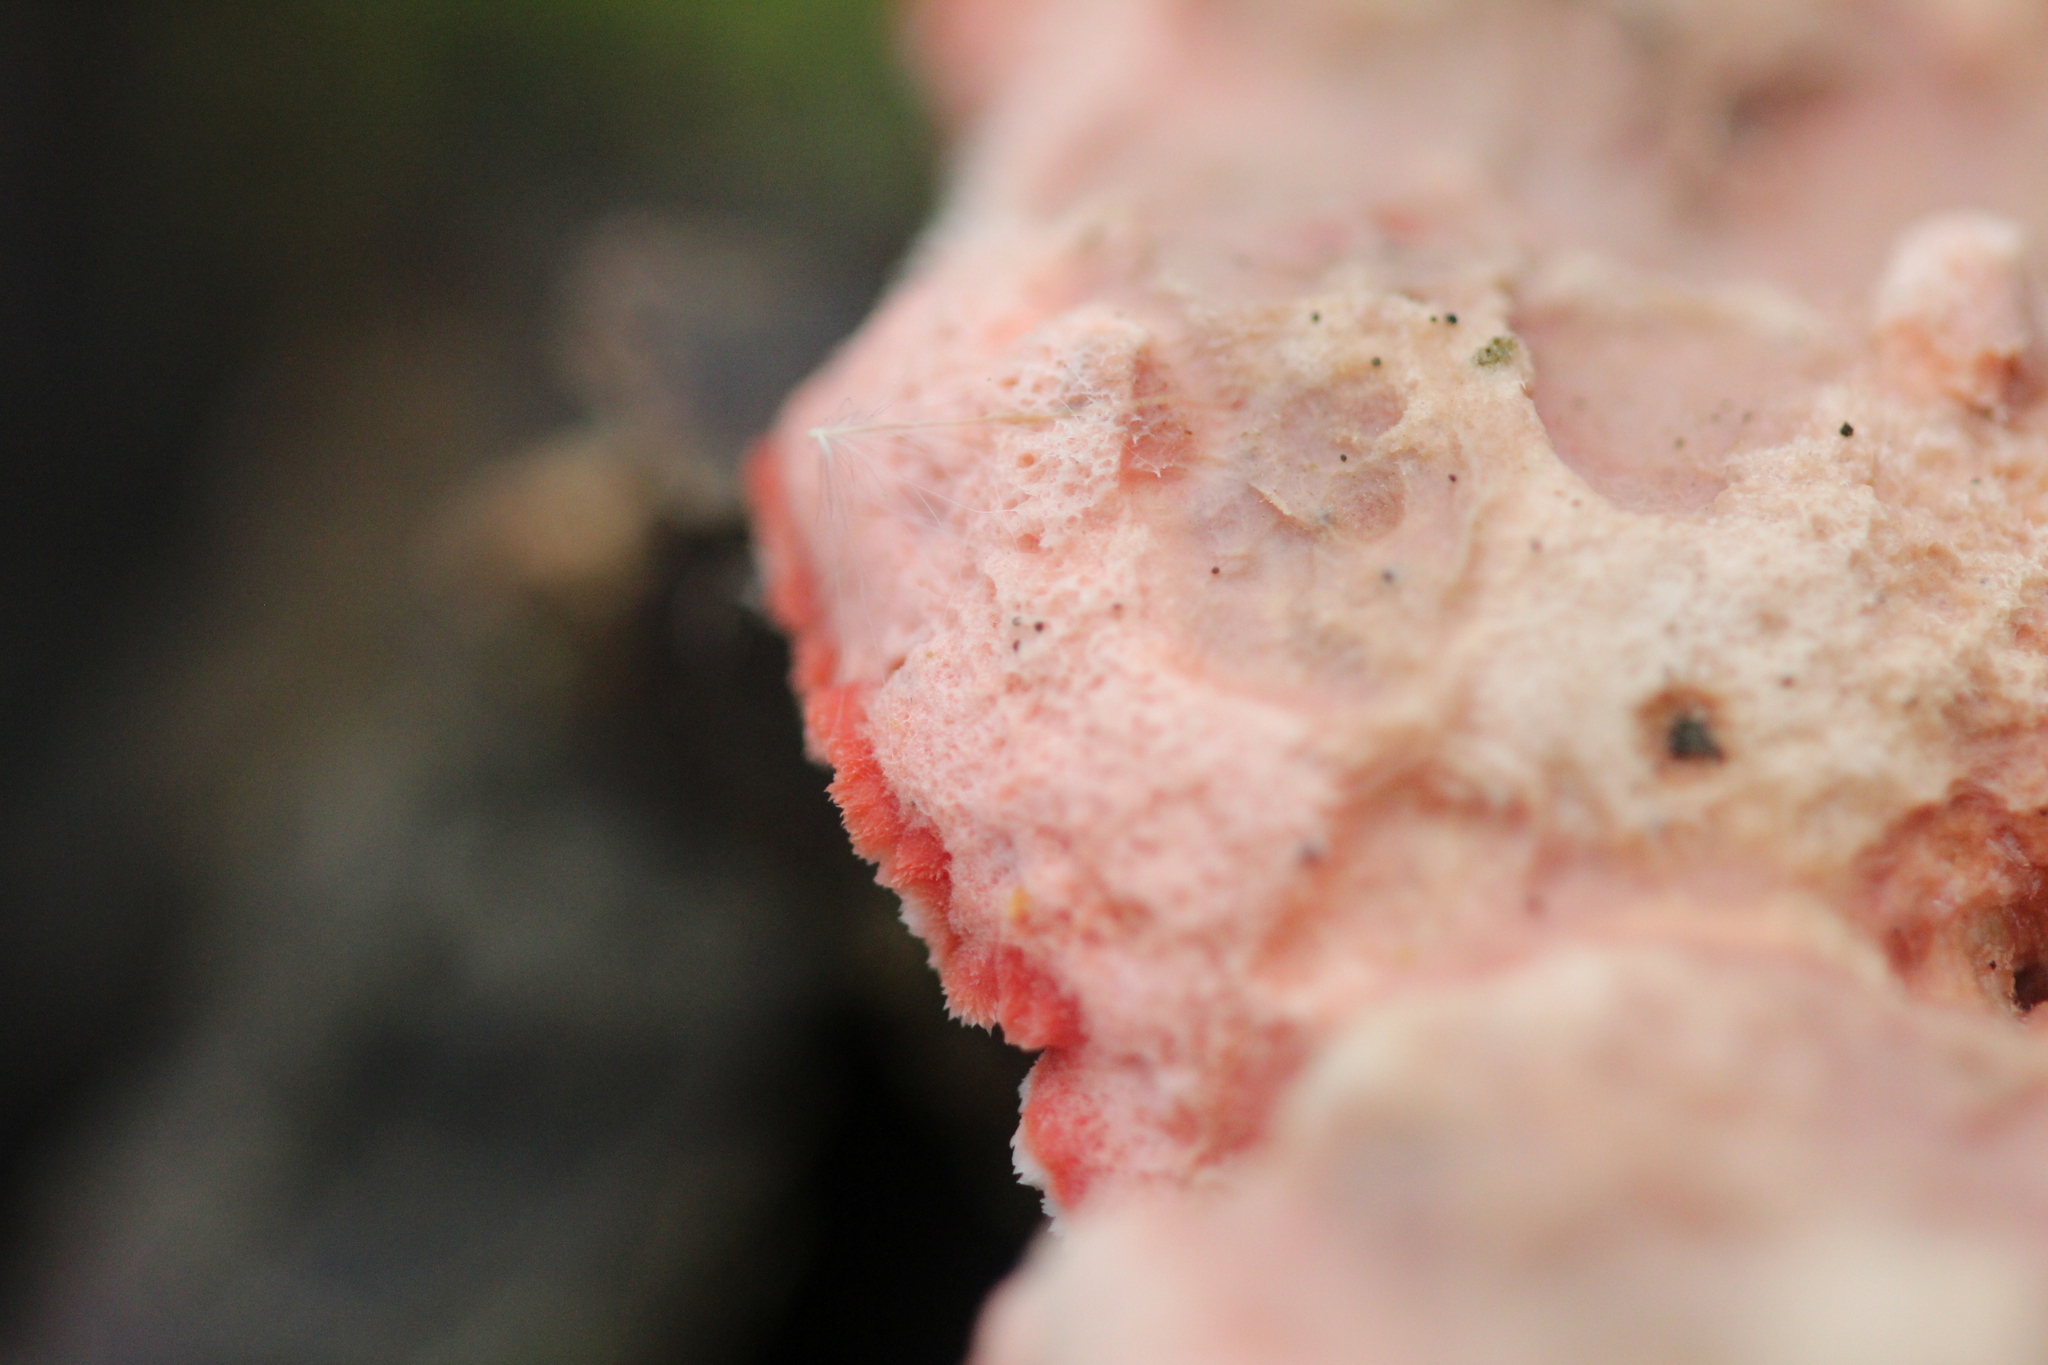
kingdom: Fungi
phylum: Basidiomycota
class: Agaricomycetes
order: Polyporales
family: Irpicaceae
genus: Byssomerulius
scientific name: Byssomerulius incarnatus
